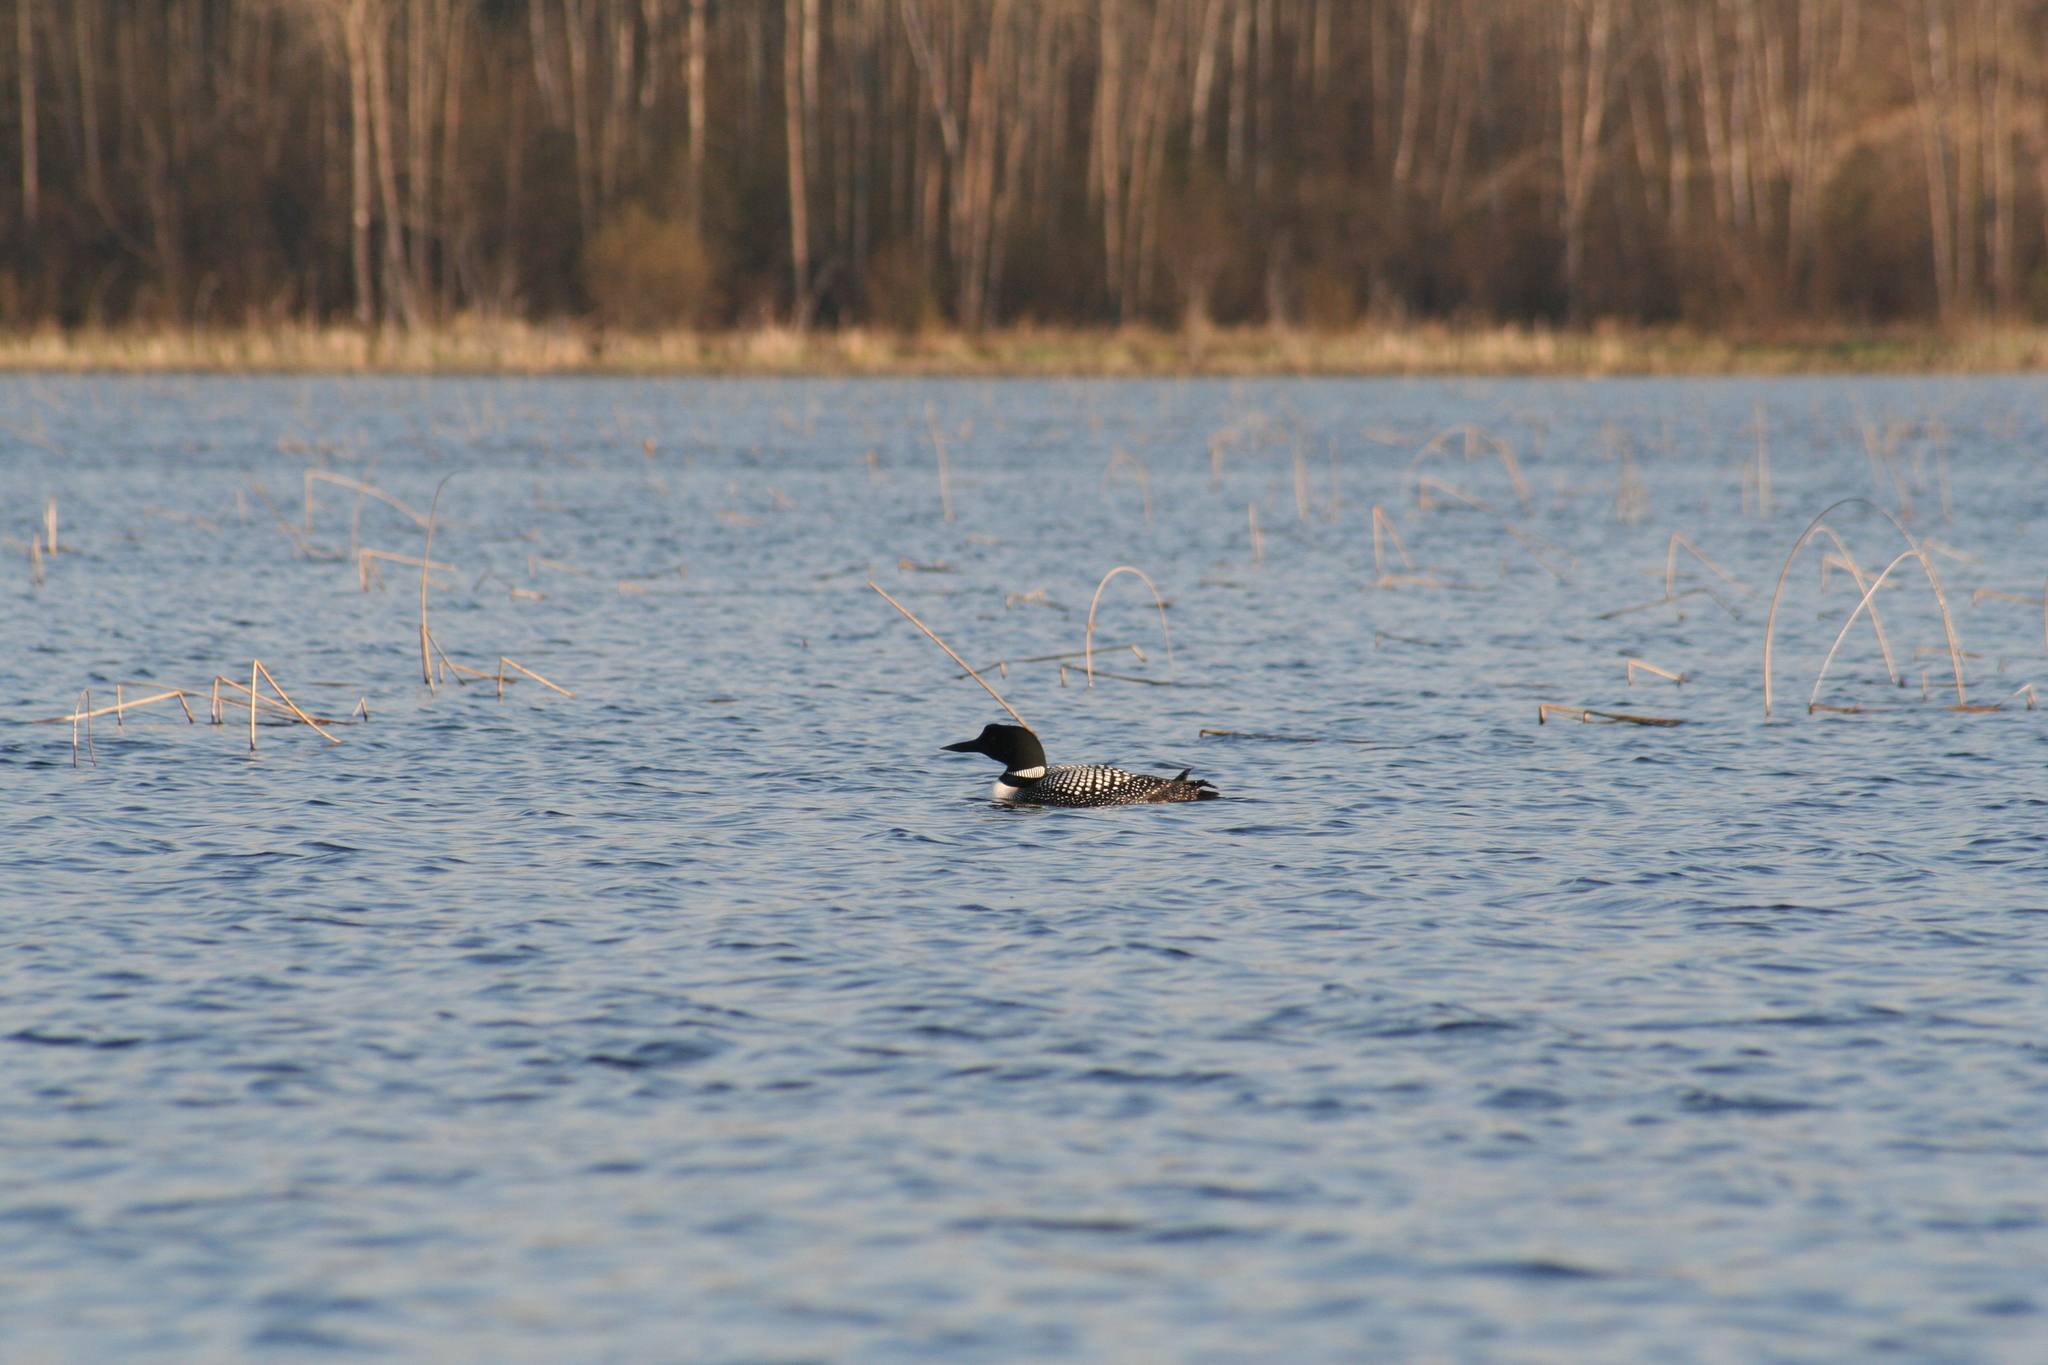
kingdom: Animalia
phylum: Chordata
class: Aves
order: Gaviiformes
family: Gaviidae
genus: Gavia
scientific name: Gavia immer
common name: Common loon
